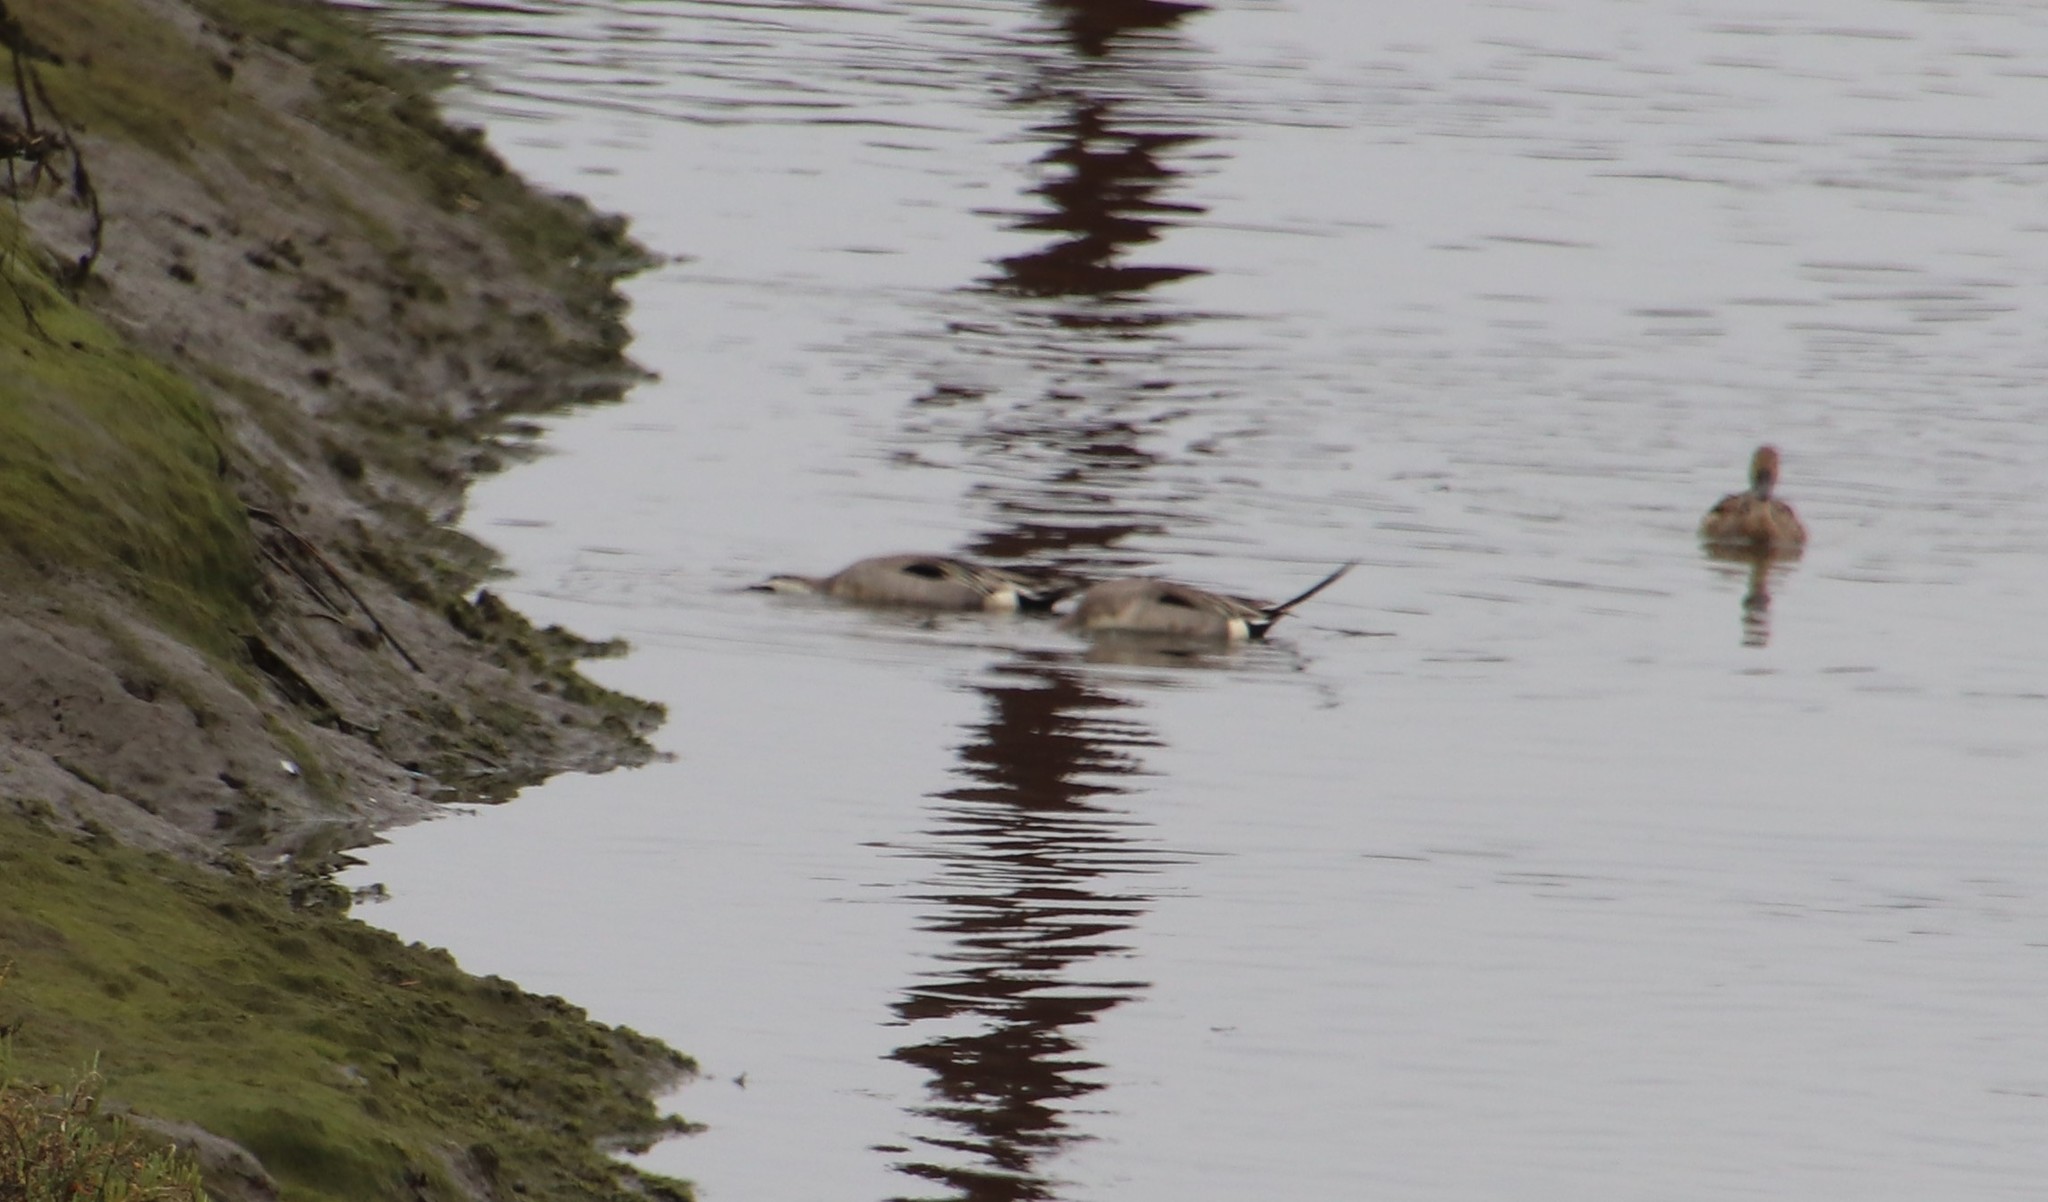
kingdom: Animalia
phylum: Chordata
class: Aves
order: Anseriformes
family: Anatidae
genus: Anas
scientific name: Anas acuta
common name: Northern pintail
